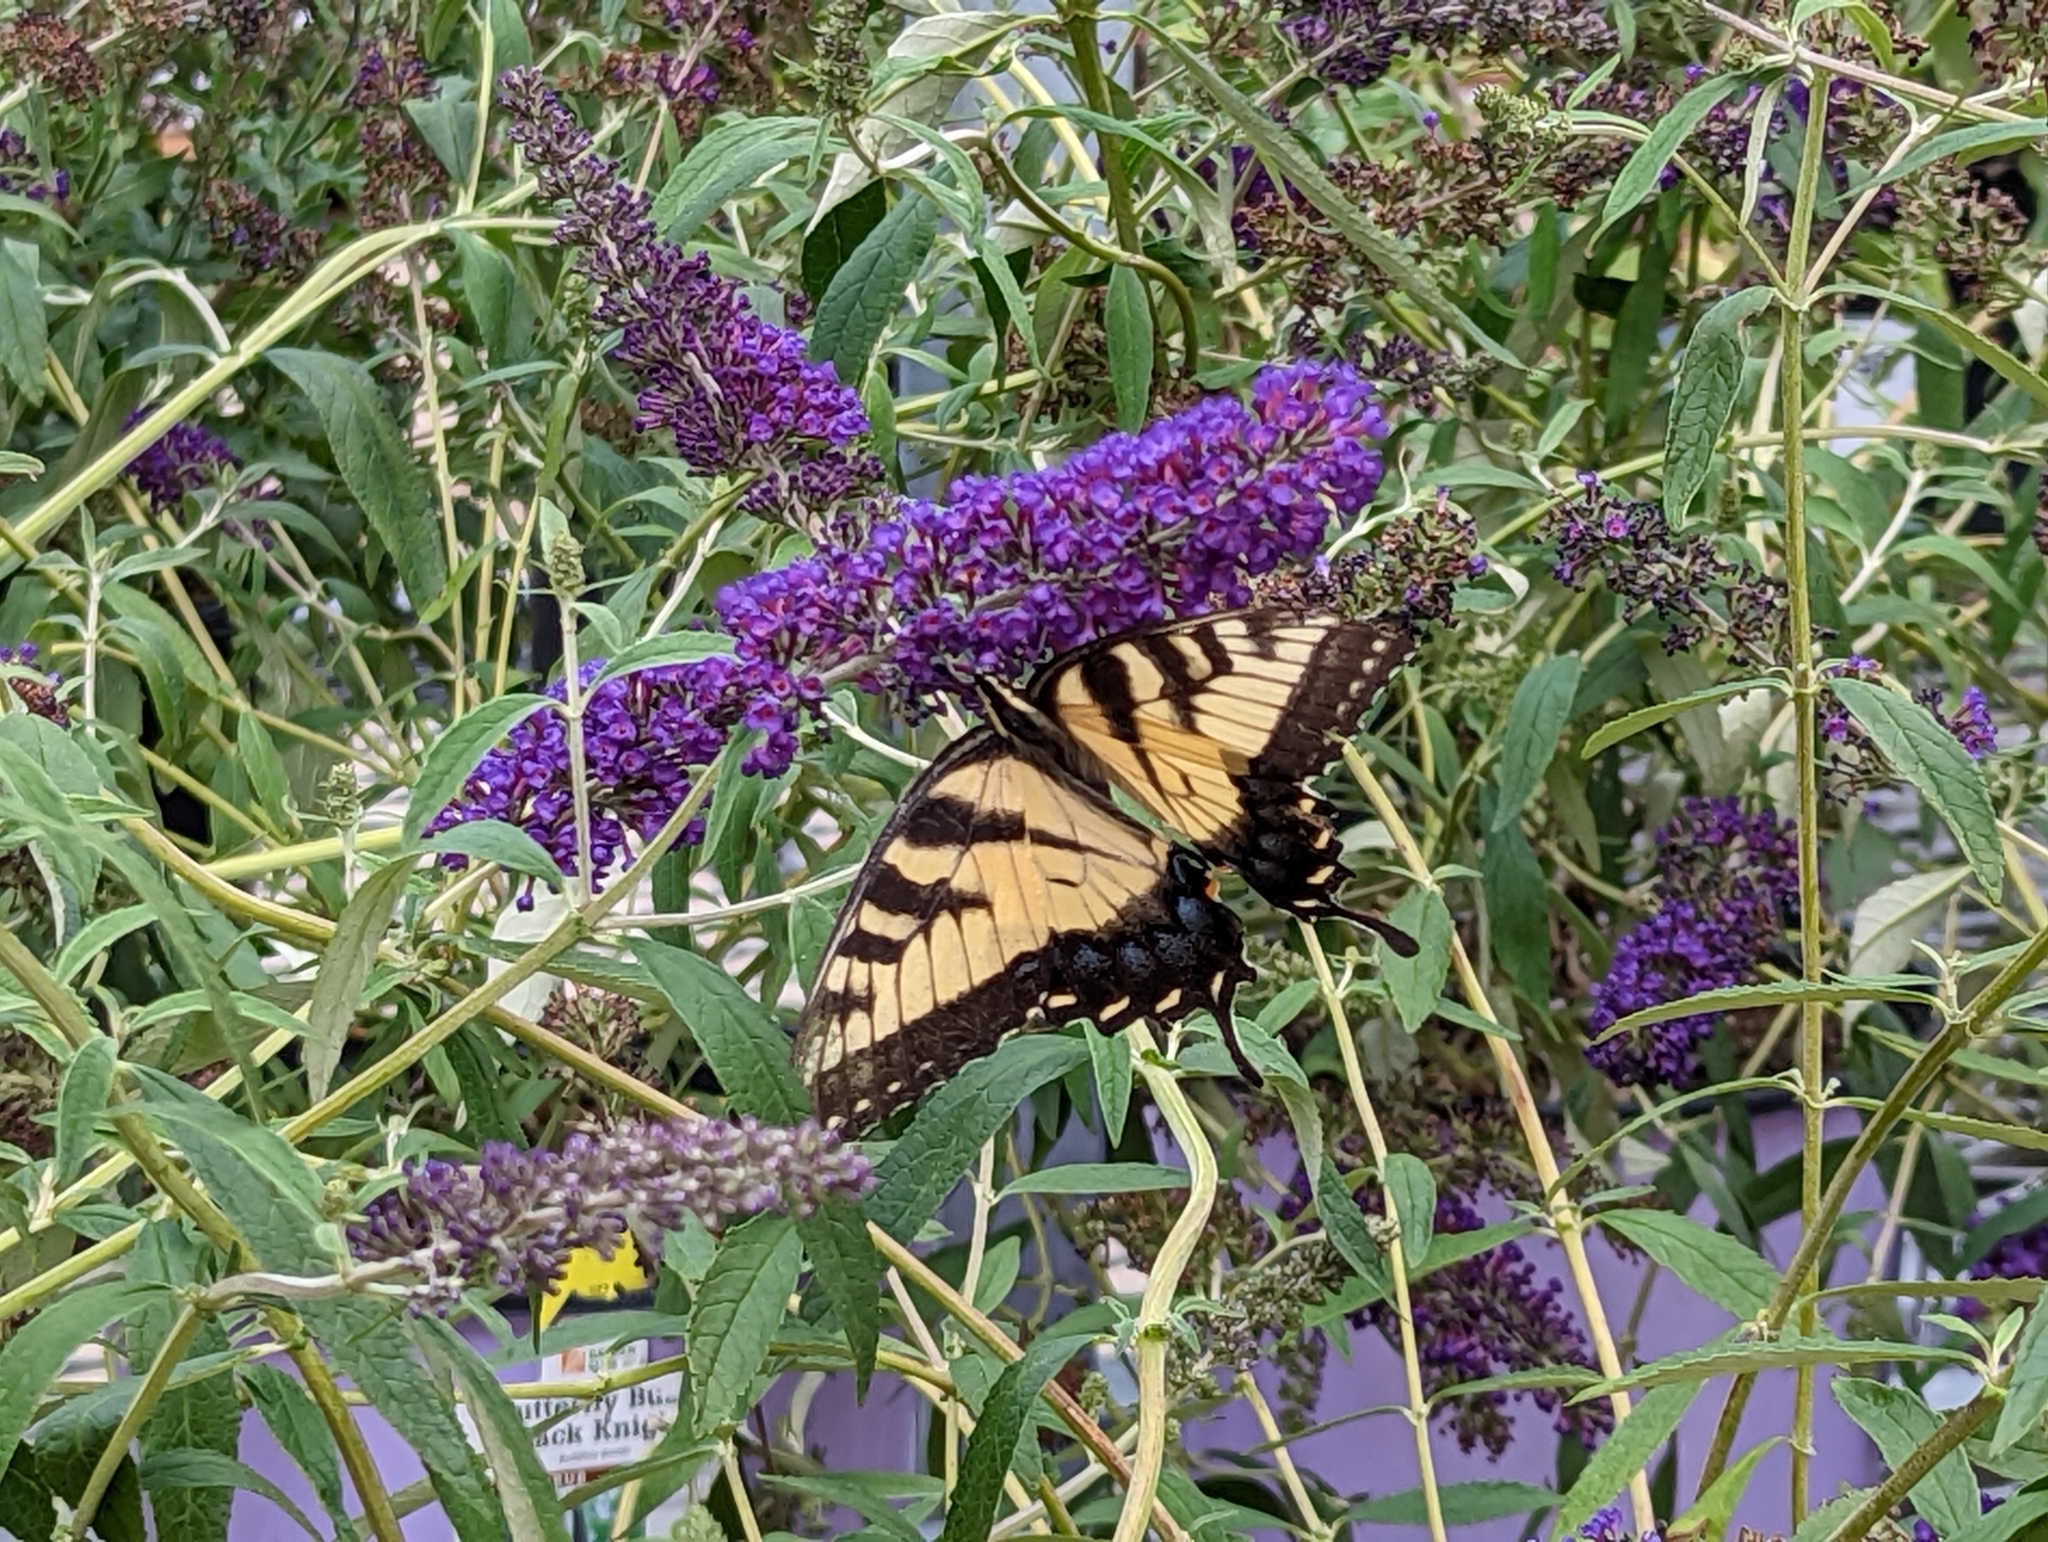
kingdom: Animalia
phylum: Arthropoda
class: Insecta
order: Lepidoptera
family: Papilionidae
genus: Papilio
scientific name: Papilio glaucus
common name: Tiger swallowtail
